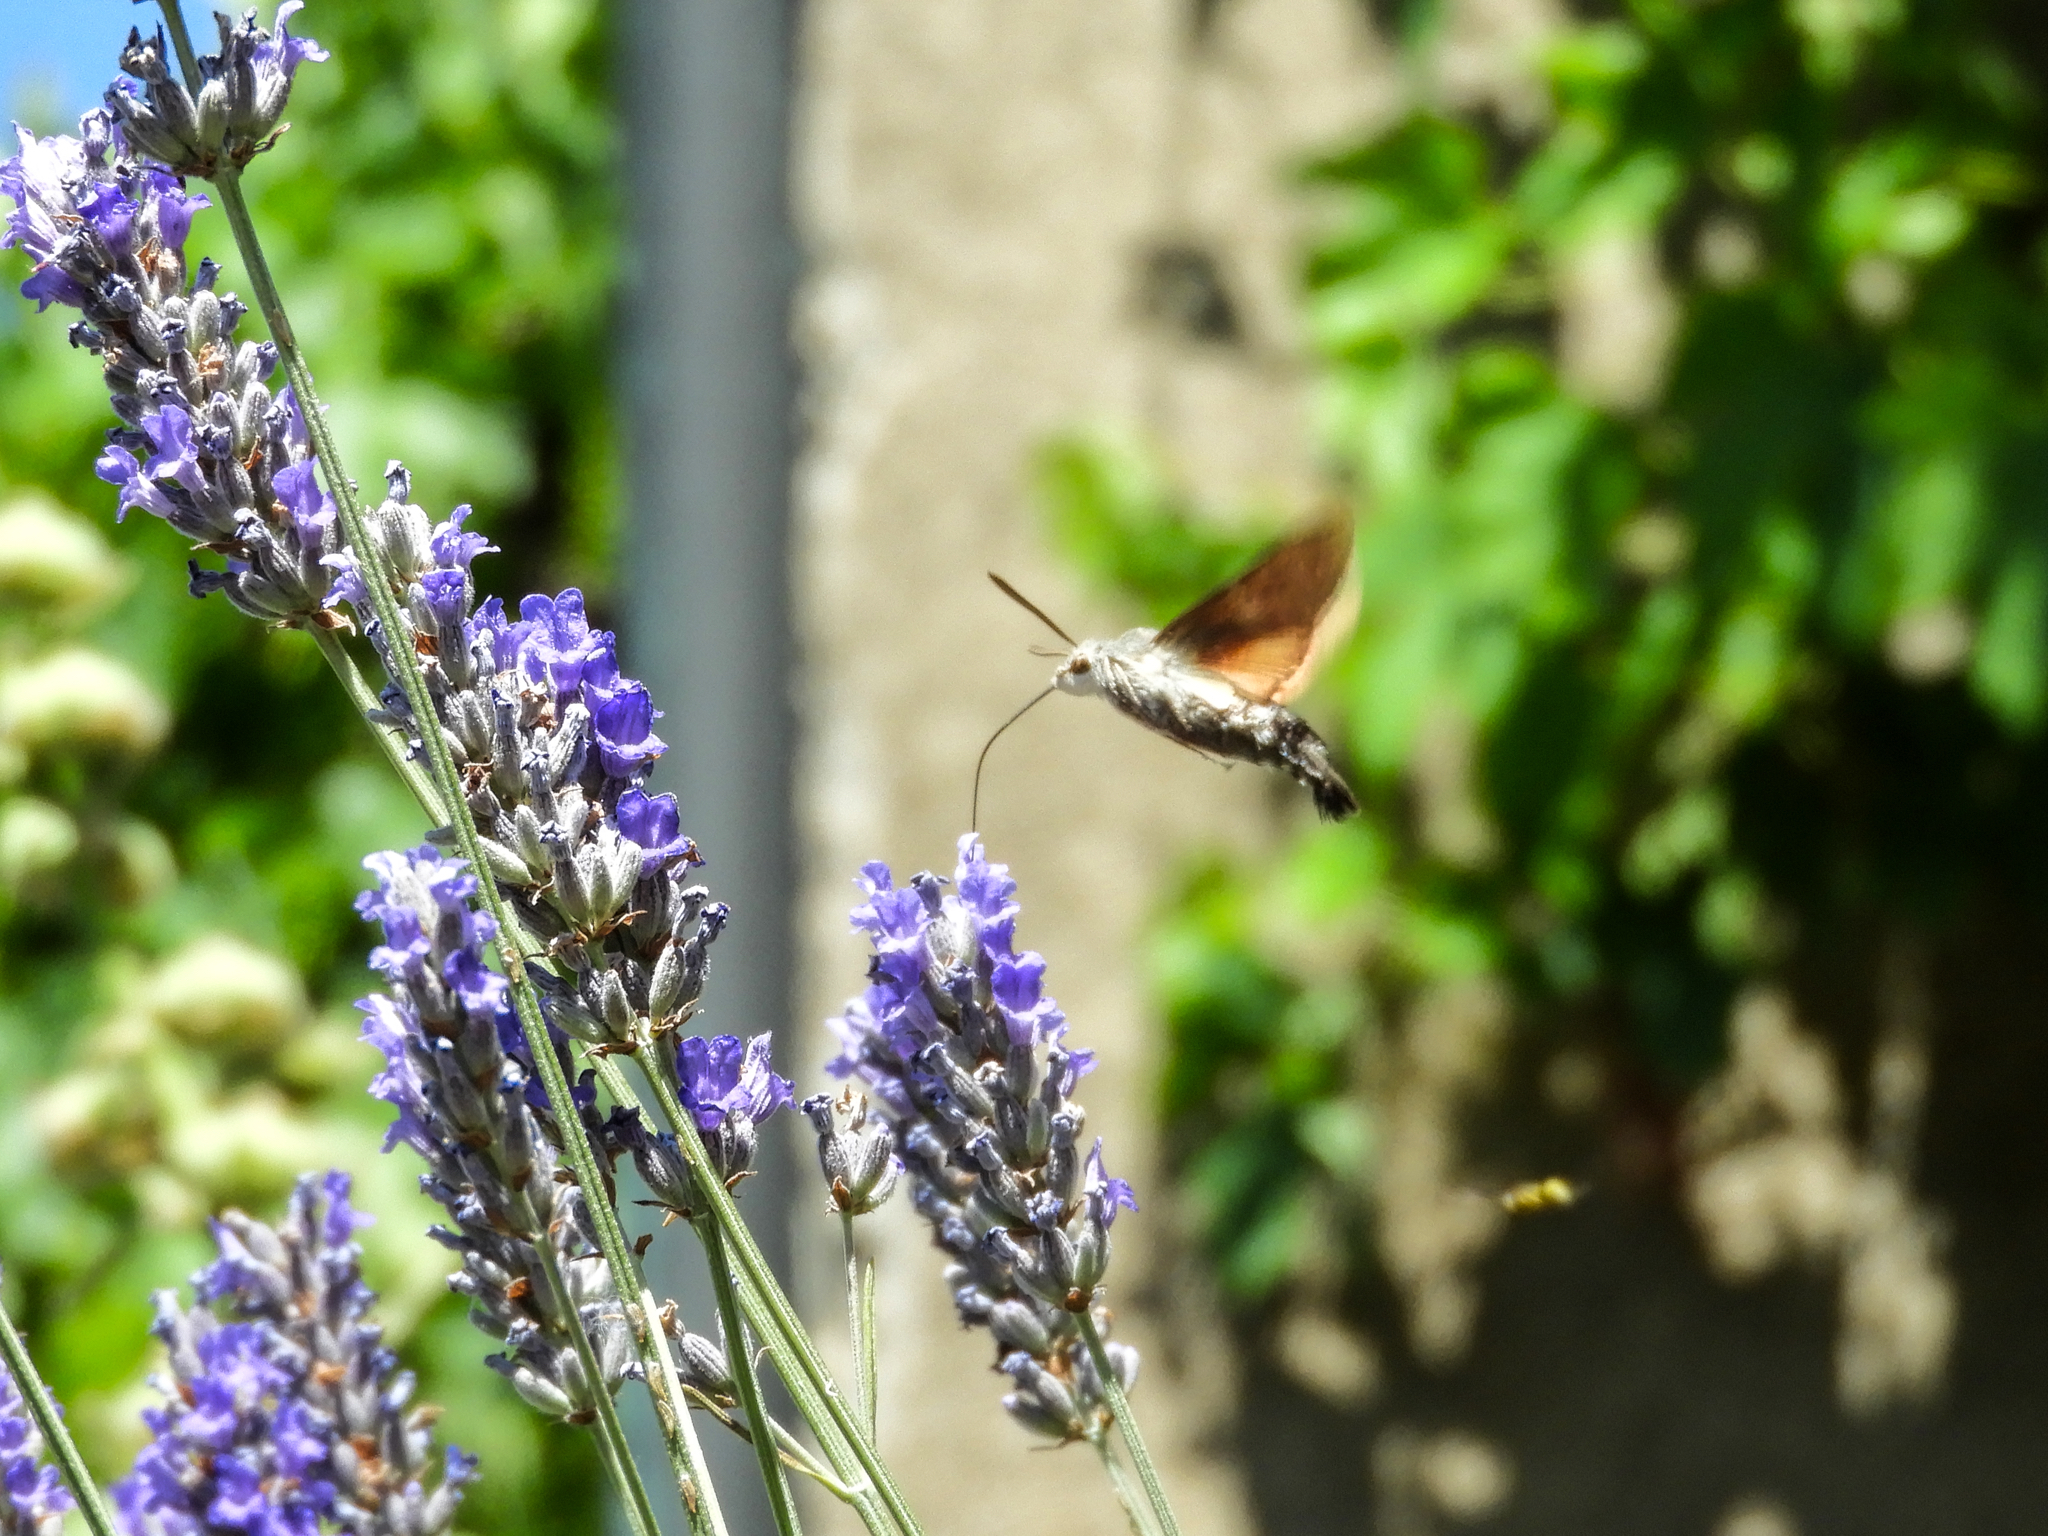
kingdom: Animalia
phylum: Arthropoda
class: Insecta
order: Lepidoptera
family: Sphingidae
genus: Macroglossum
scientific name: Macroglossum stellatarum
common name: Humming-bird hawk-moth
